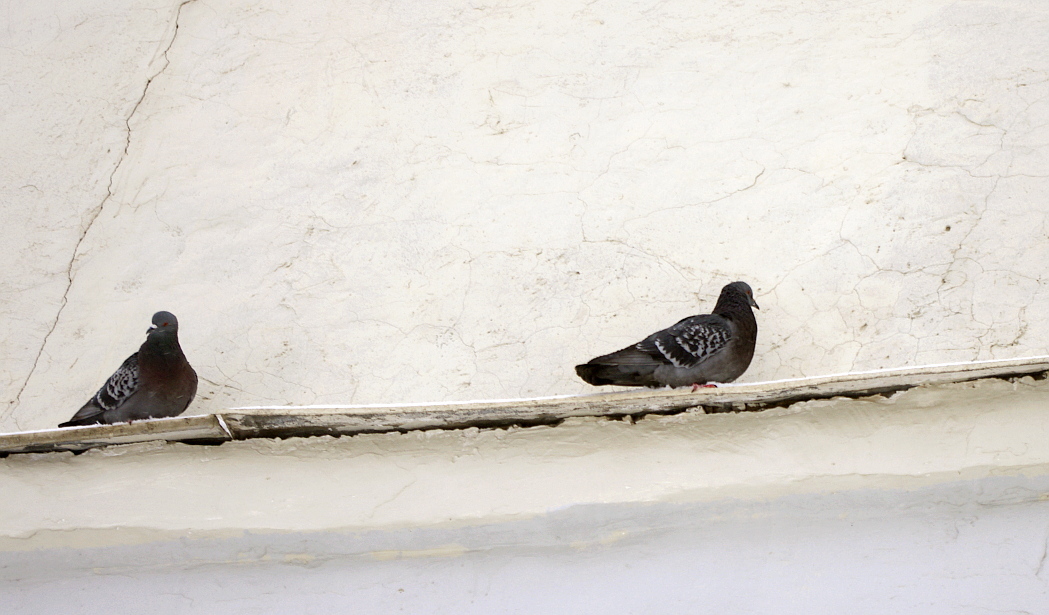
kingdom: Animalia
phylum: Chordata
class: Aves
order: Columbiformes
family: Columbidae
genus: Columba
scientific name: Columba livia
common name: Rock pigeon
